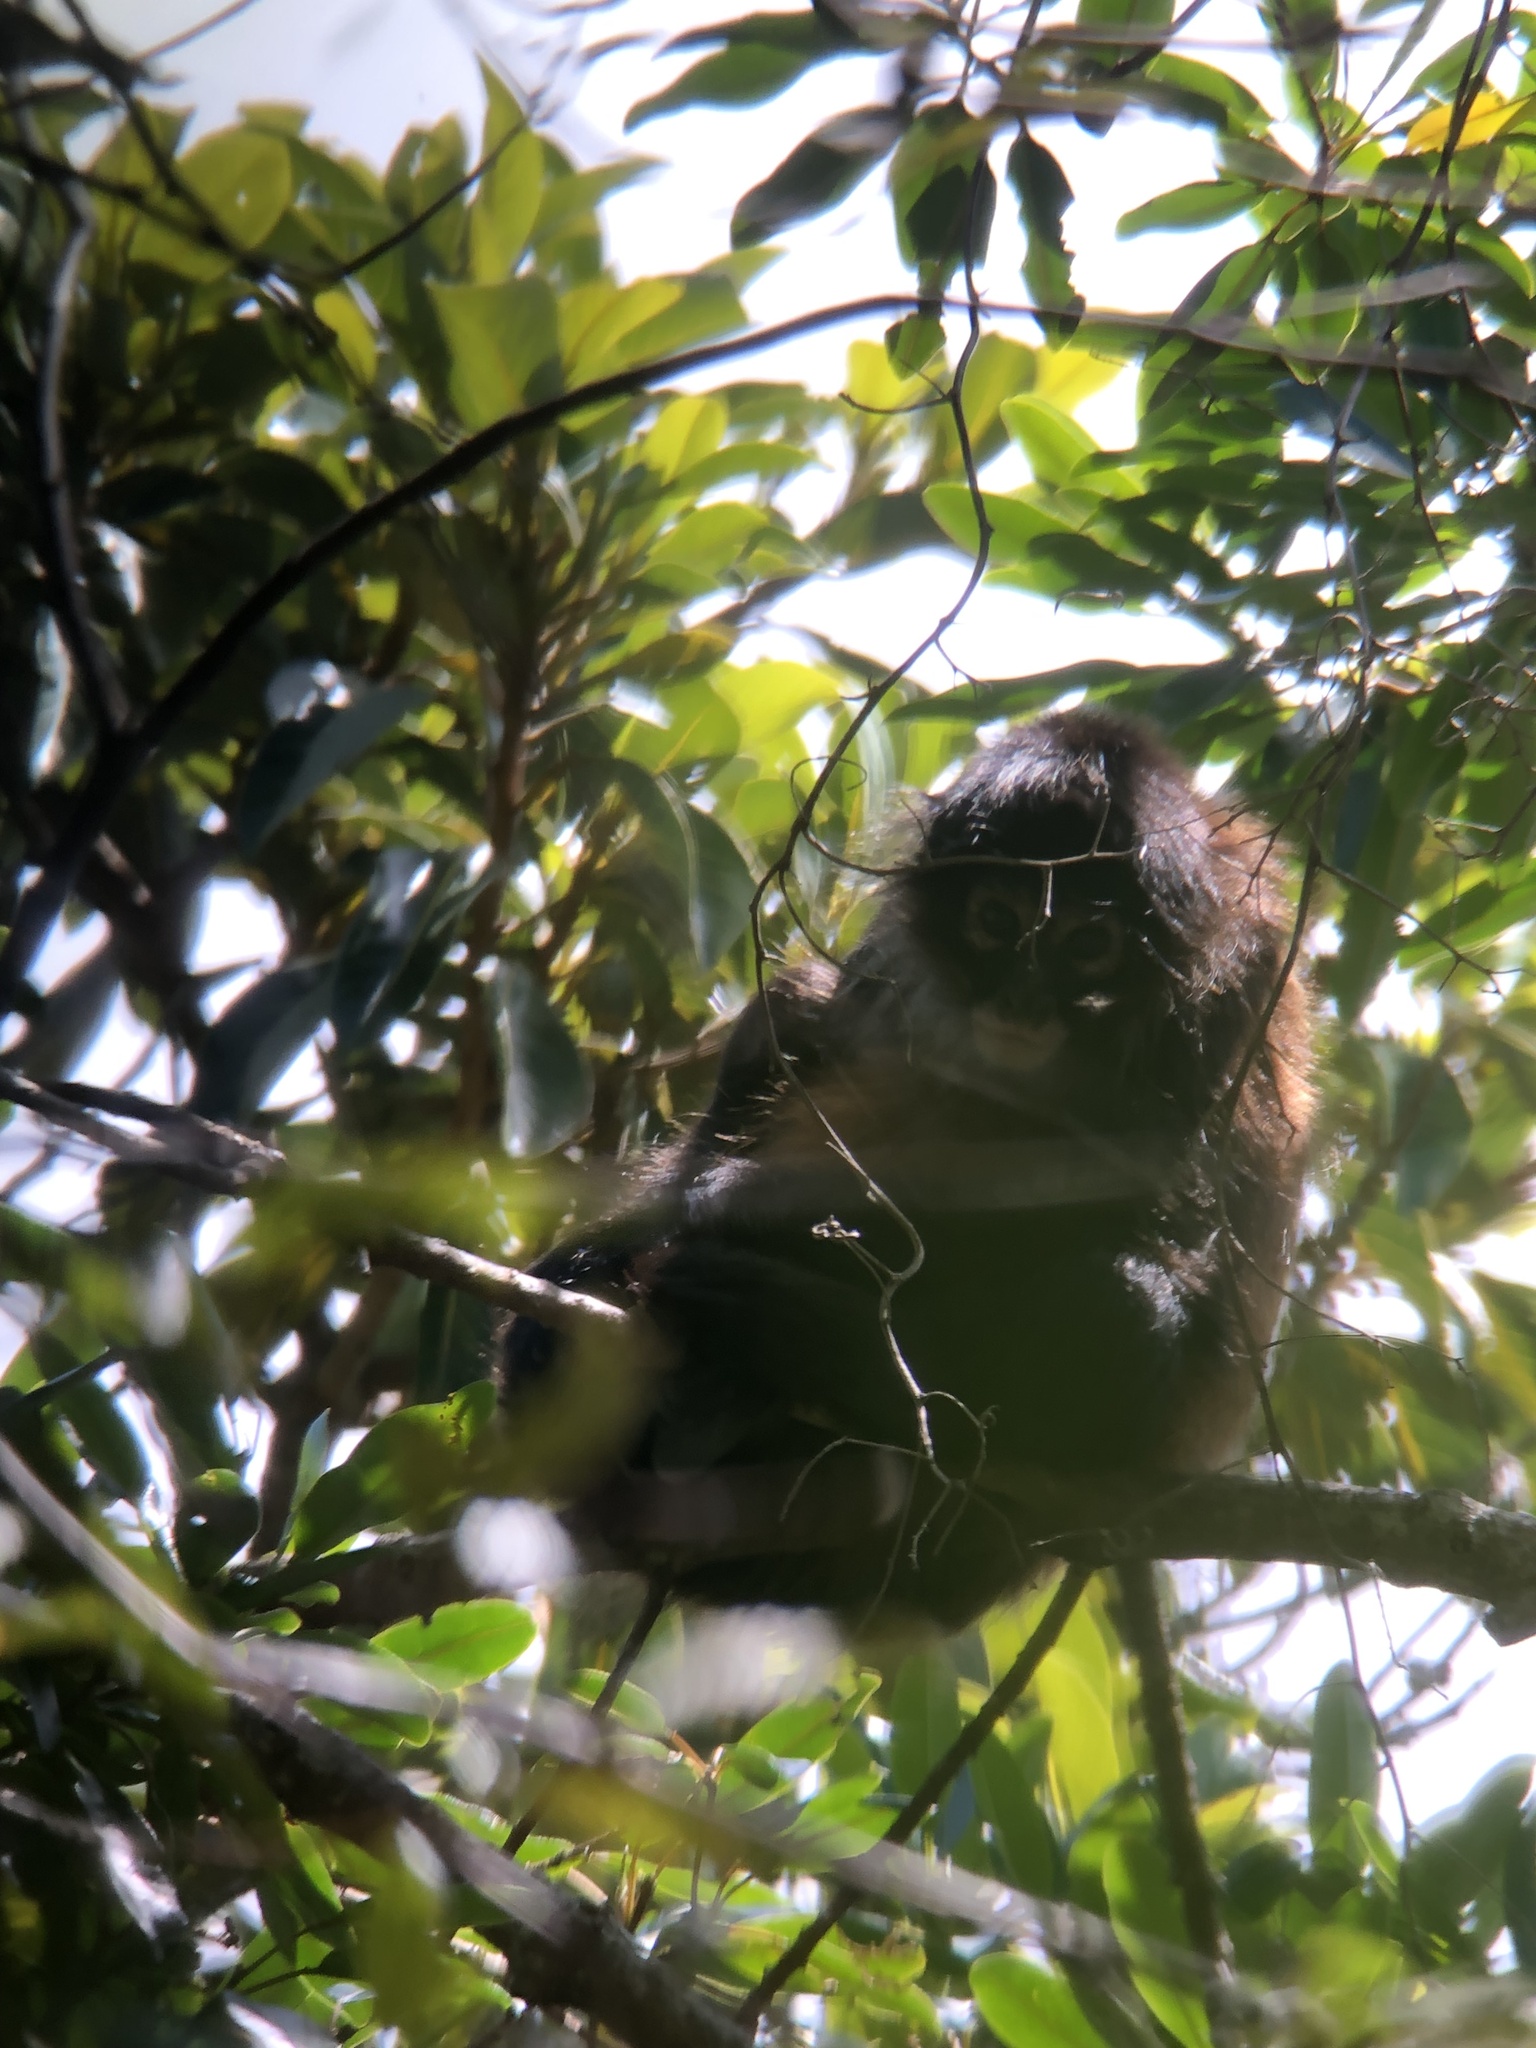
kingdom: Animalia
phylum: Chordata
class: Mammalia
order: Primates
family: Atelidae
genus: Ateles
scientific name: Ateles geoffroyi
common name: Black-handed spider monkey
